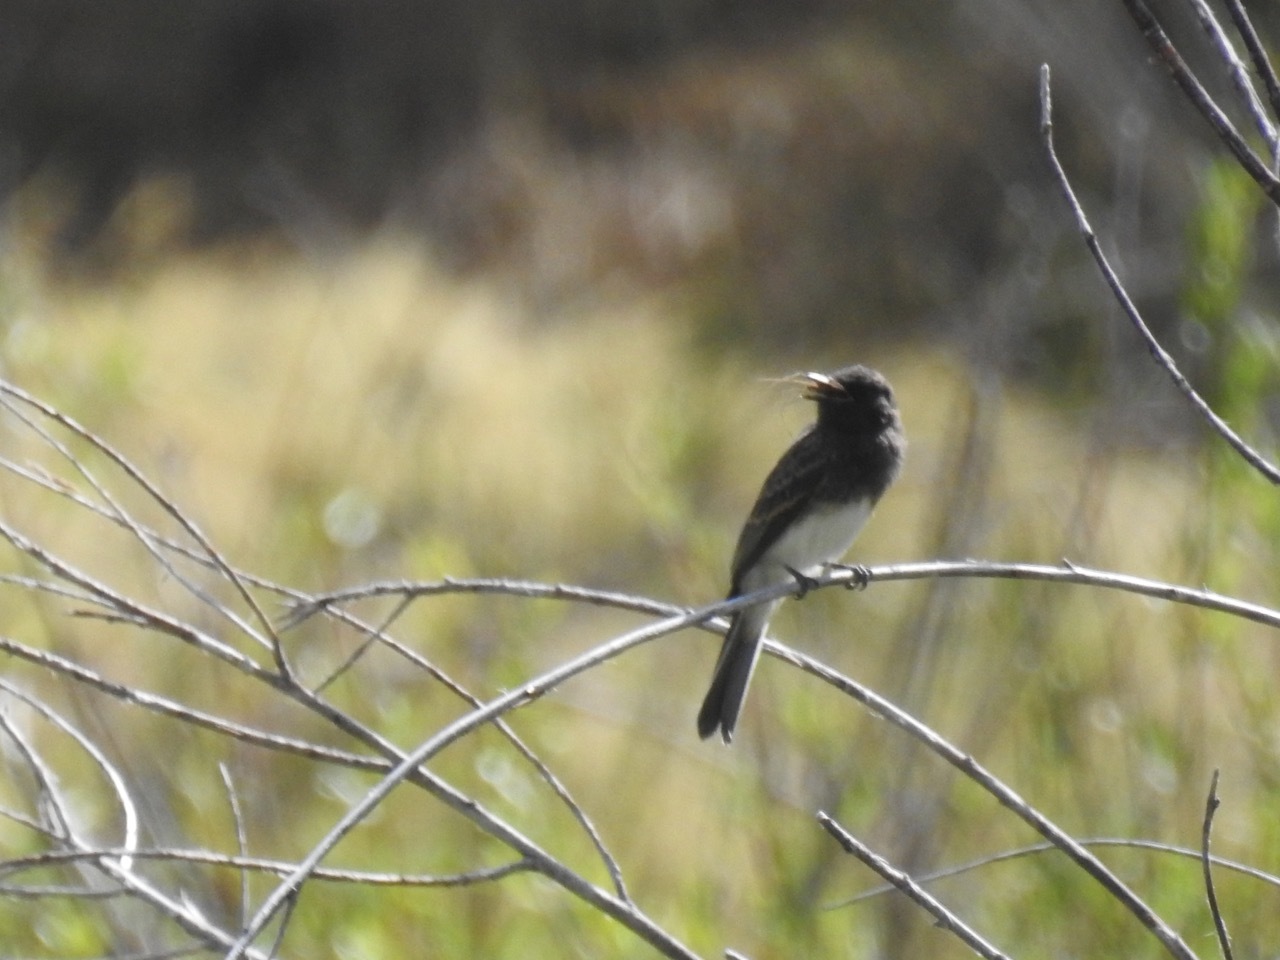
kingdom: Animalia
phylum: Chordata
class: Aves
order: Passeriformes
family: Tyrannidae
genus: Sayornis
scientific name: Sayornis nigricans
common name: Black phoebe
